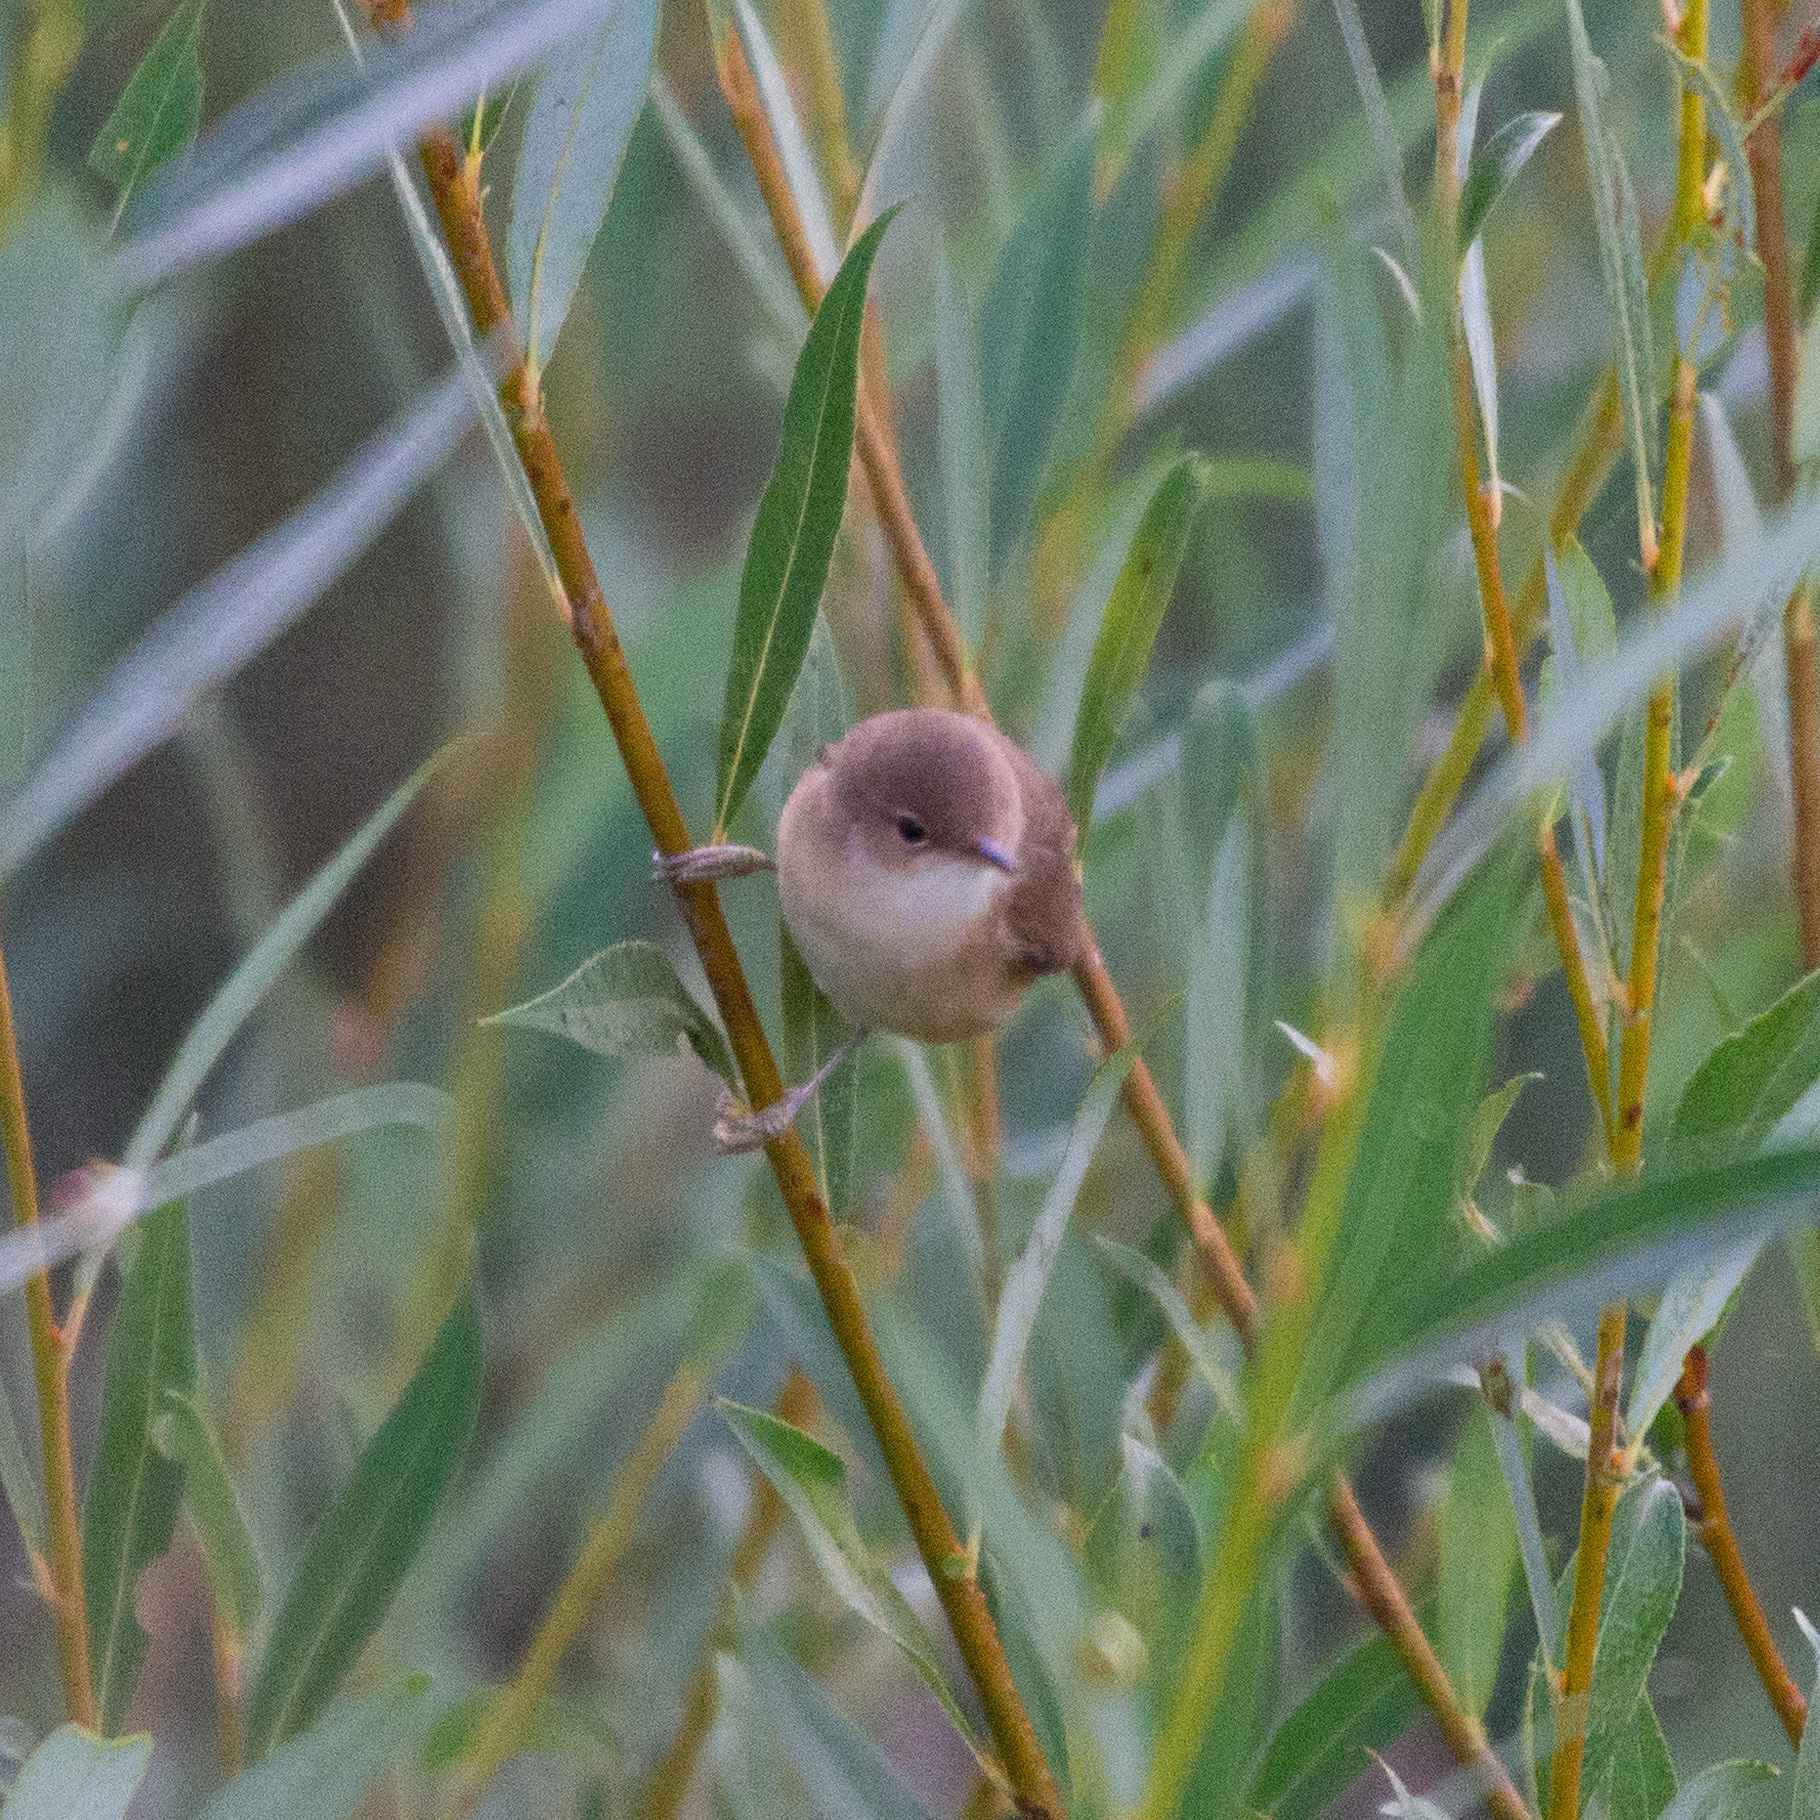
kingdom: Animalia
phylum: Chordata
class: Aves
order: Passeriformes
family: Acrocephalidae
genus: Acrocephalus
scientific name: Acrocephalus scirpaceus
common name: Eurasian reed warbler
